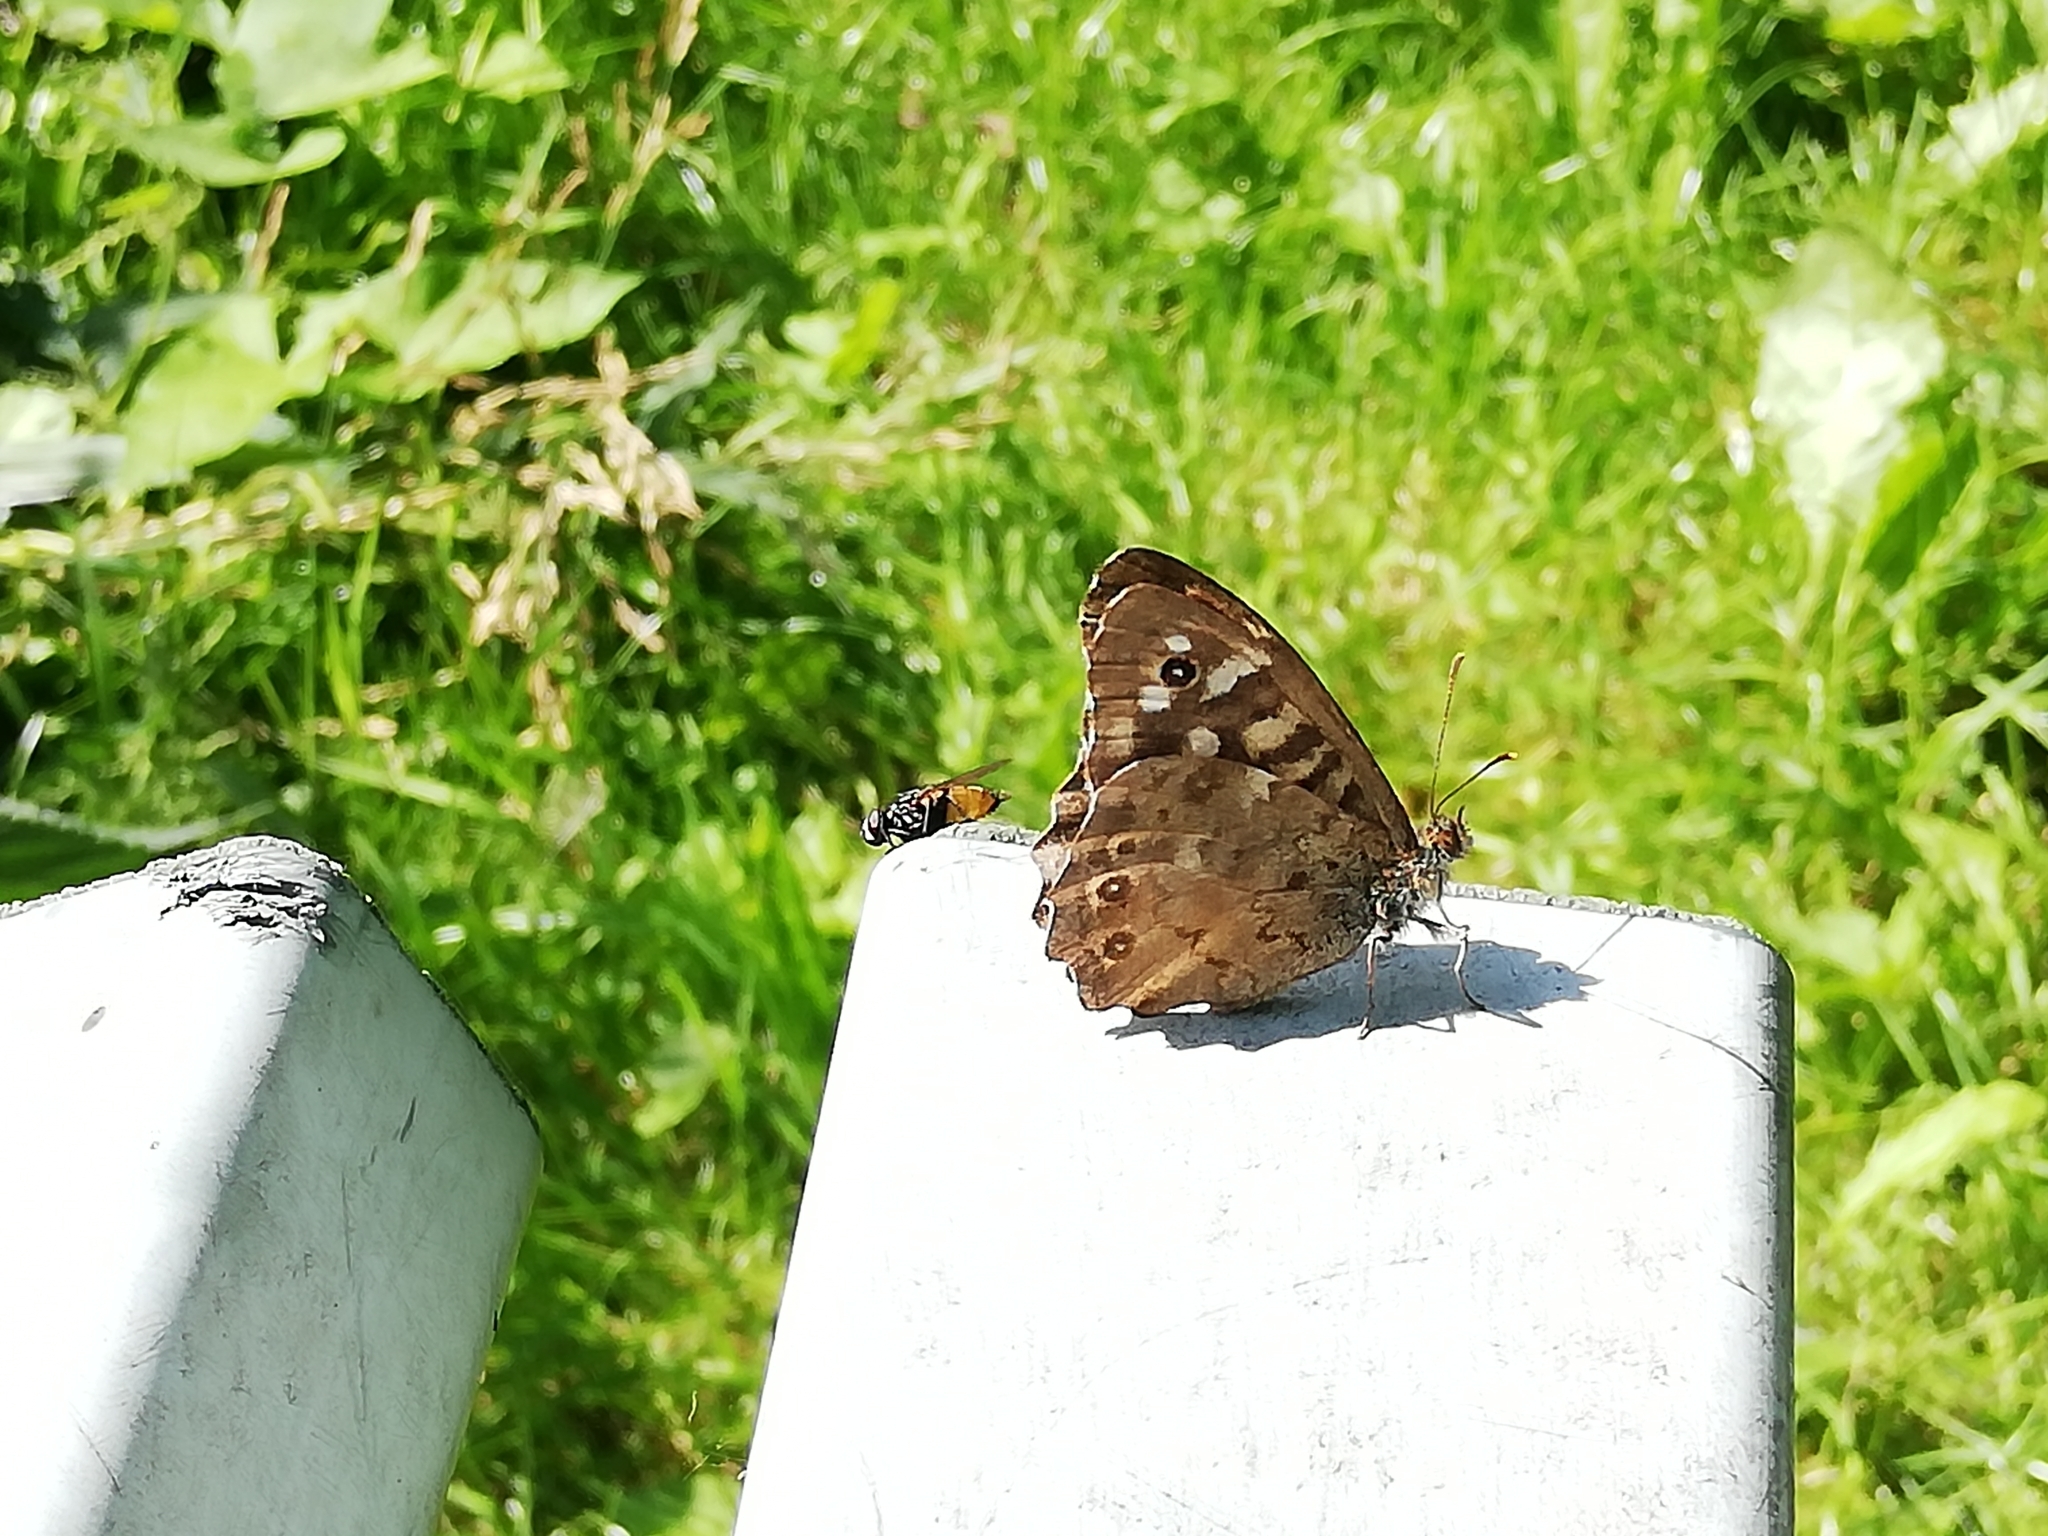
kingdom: Animalia
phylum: Arthropoda
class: Insecta
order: Lepidoptera
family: Nymphalidae
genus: Pararge
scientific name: Pararge aegeria
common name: Speckled wood
